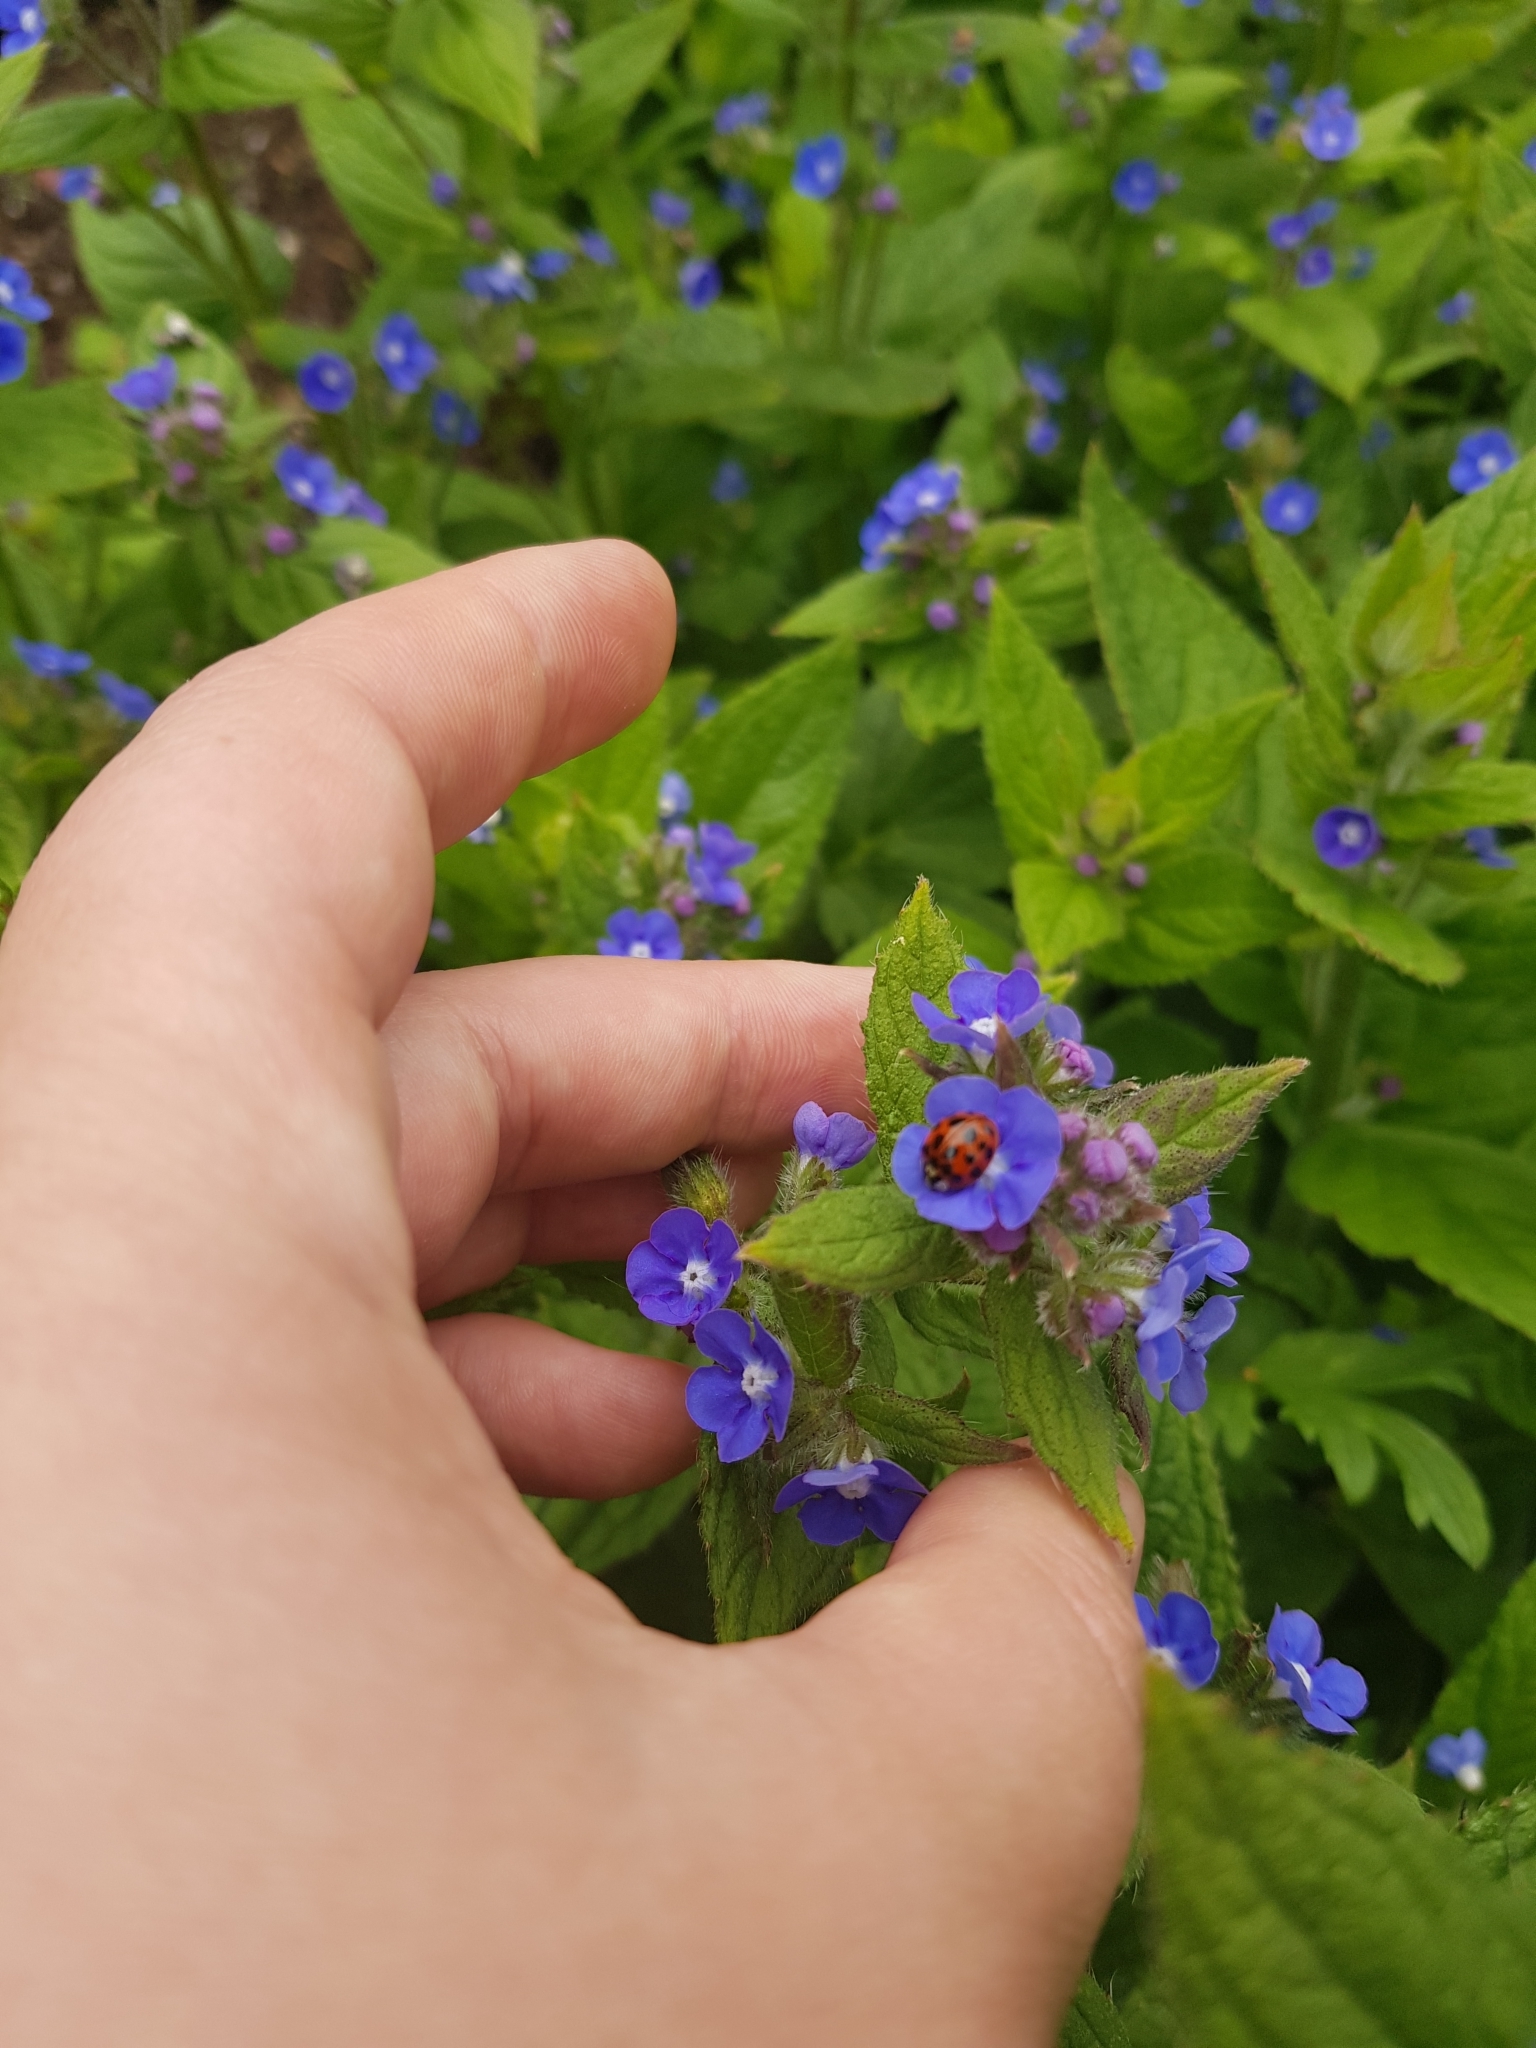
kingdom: Animalia
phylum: Arthropoda
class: Insecta
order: Coleoptera
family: Coccinellidae
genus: Harmonia
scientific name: Harmonia axyridis
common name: Harlequin ladybird
